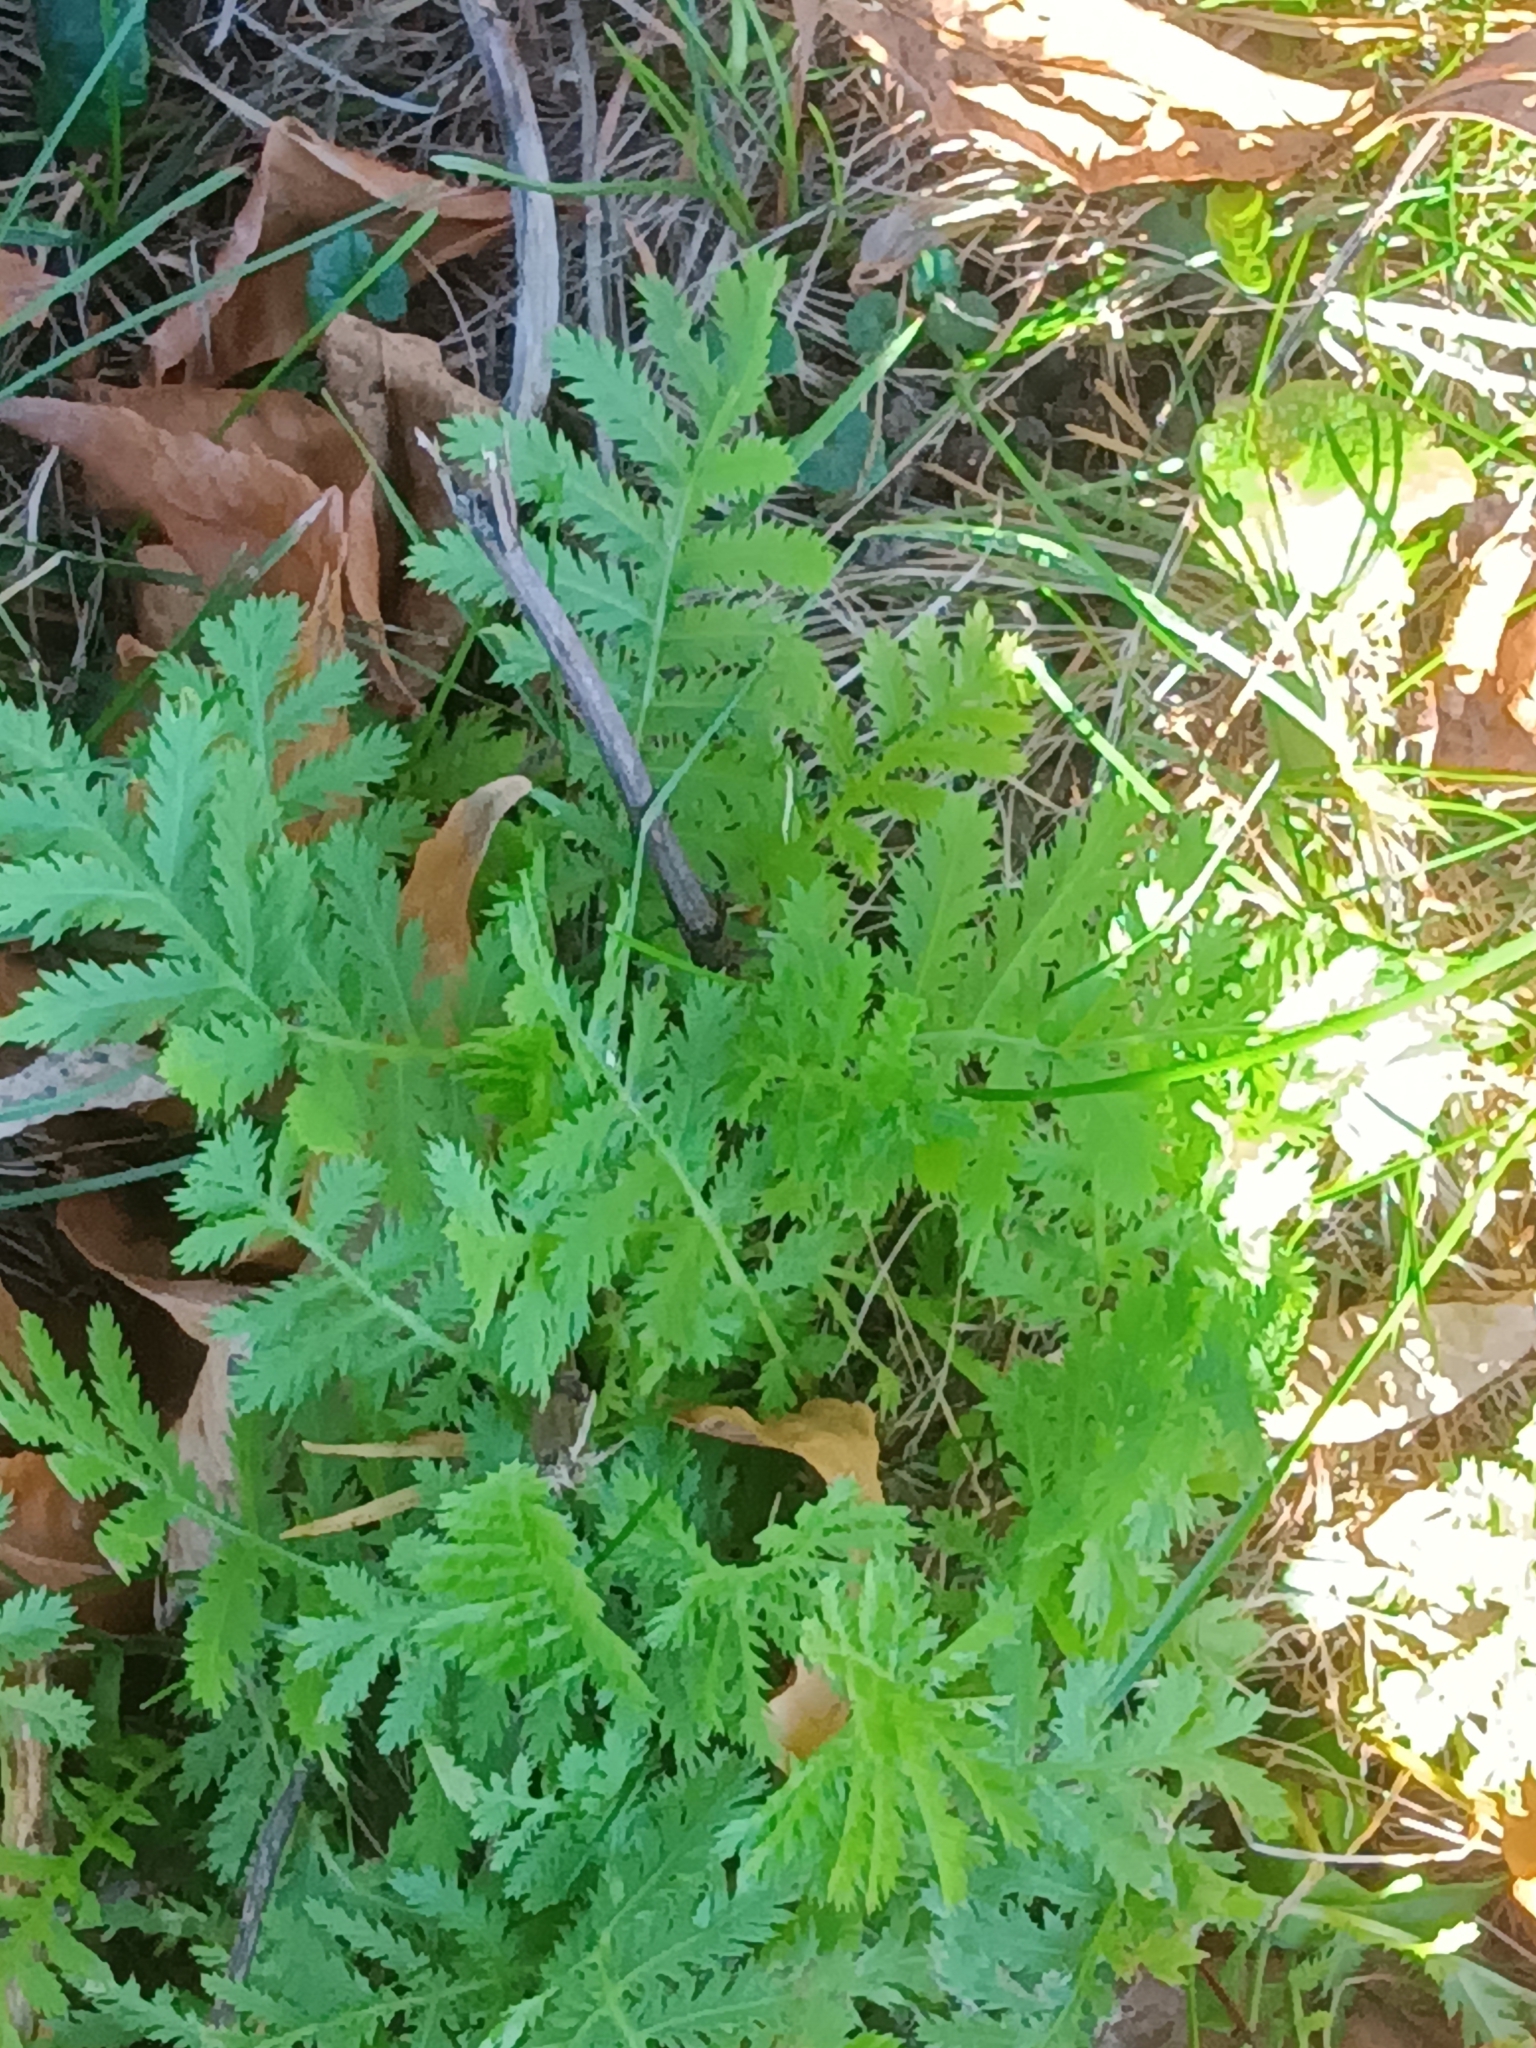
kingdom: Plantae
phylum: Tracheophyta
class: Magnoliopsida
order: Asterales
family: Asteraceae
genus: Tanacetum
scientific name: Tanacetum vulgare
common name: Common tansy
